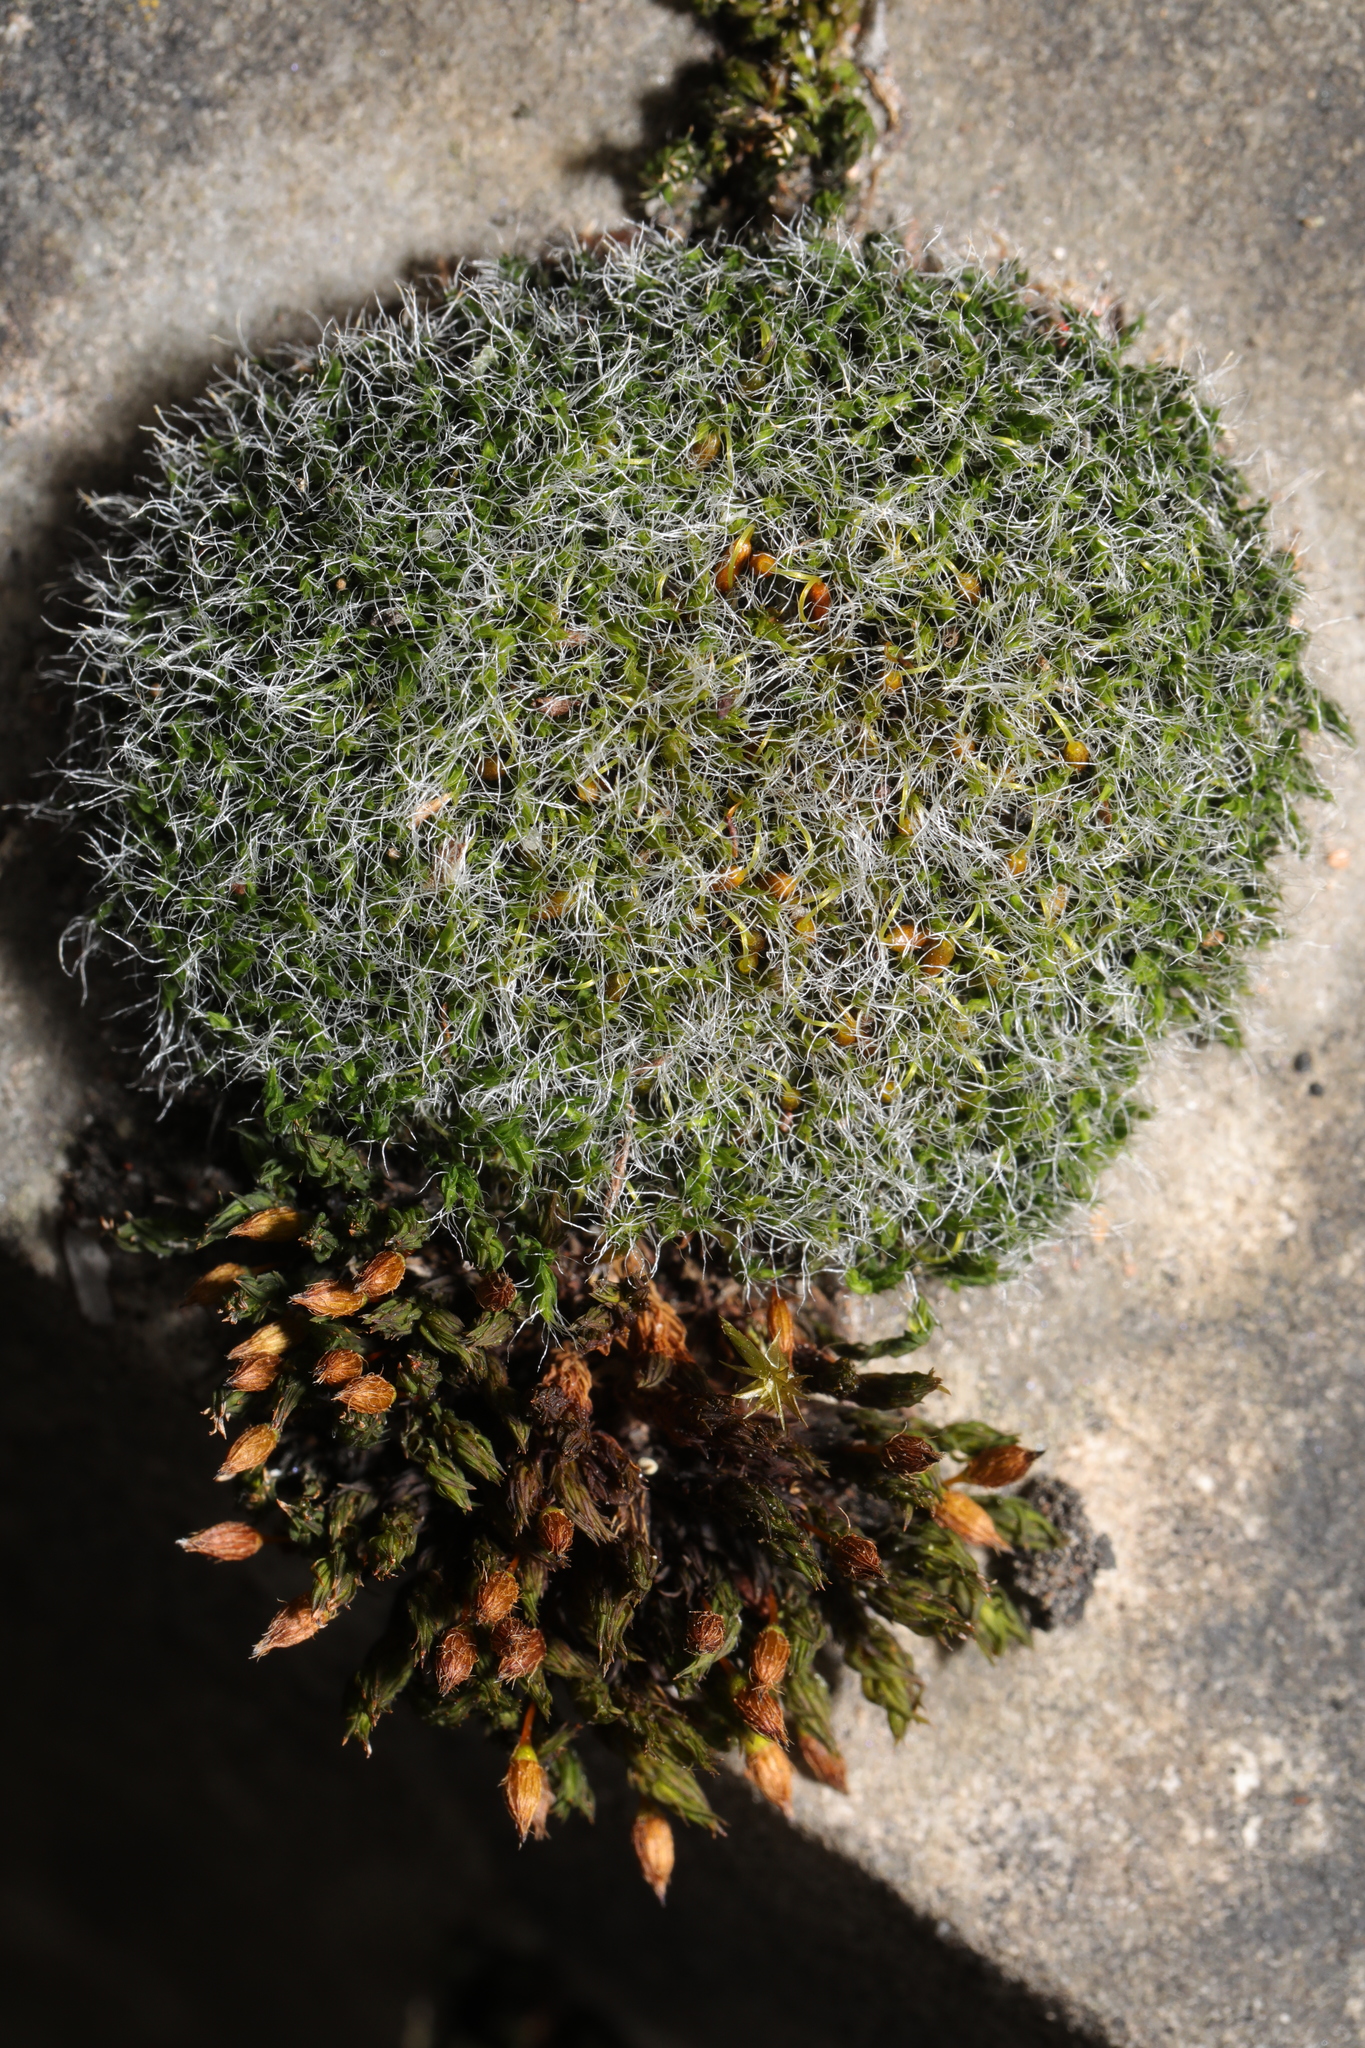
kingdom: Plantae
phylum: Bryophyta
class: Bryopsida
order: Grimmiales
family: Grimmiaceae
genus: Grimmia
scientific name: Grimmia pulvinata
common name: Grey-cushioned grimmia
